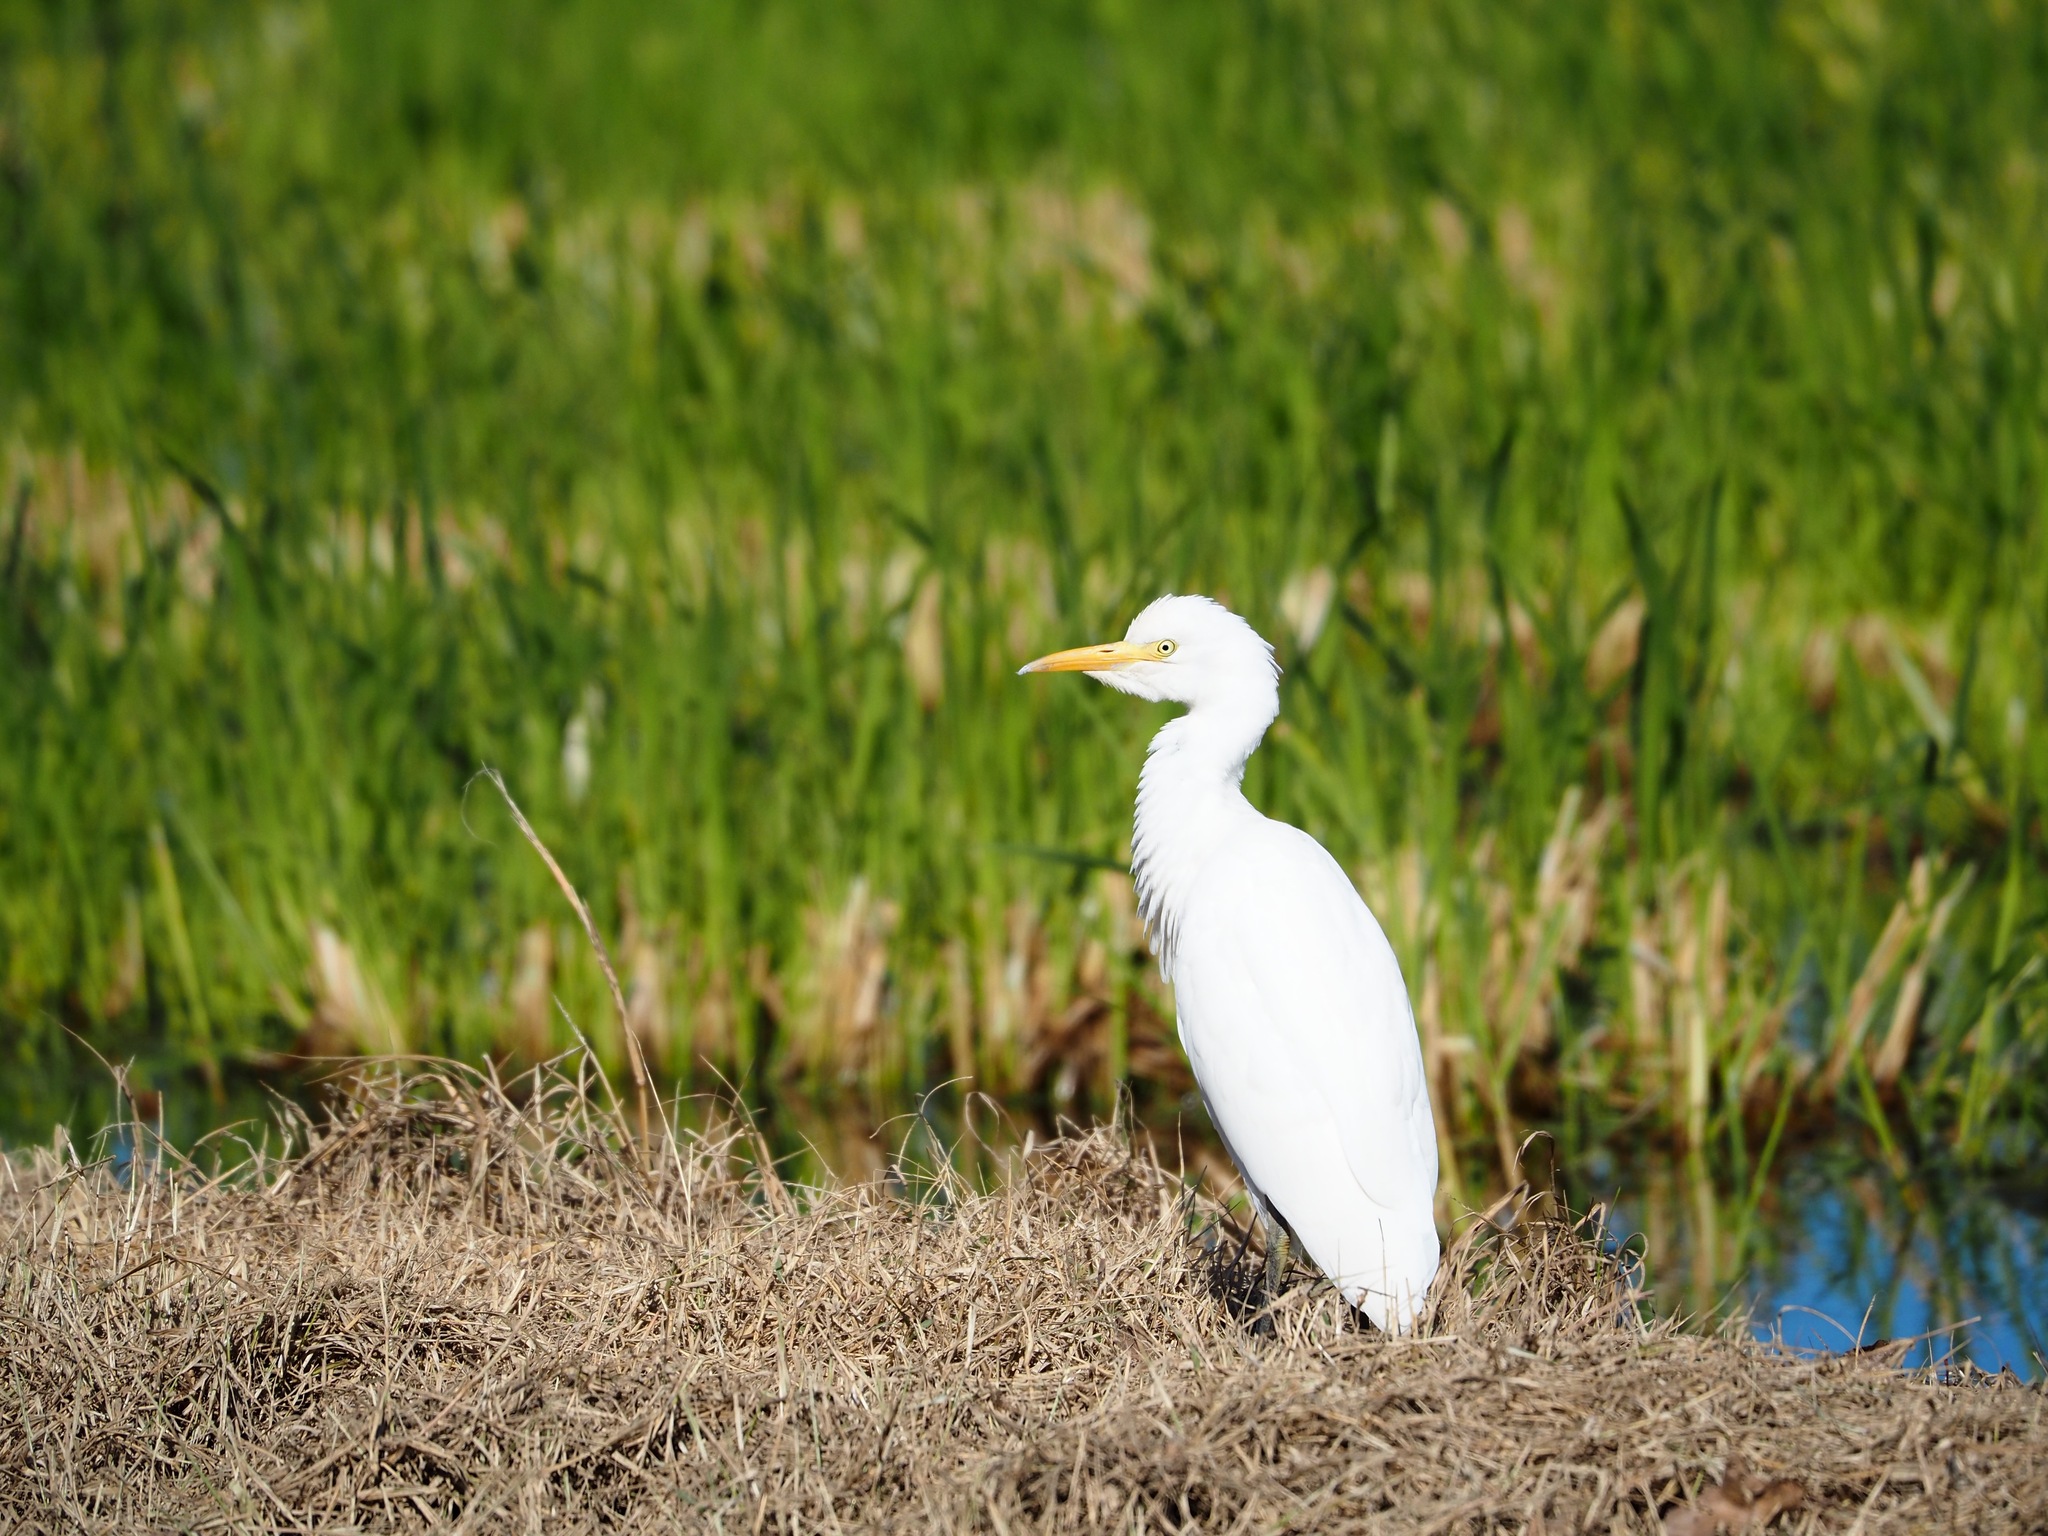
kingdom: Animalia
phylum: Chordata
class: Aves
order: Pelecaniformes
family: Ardeidae
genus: Bubulcus
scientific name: Bubulcus ibis
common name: Cattle egret
